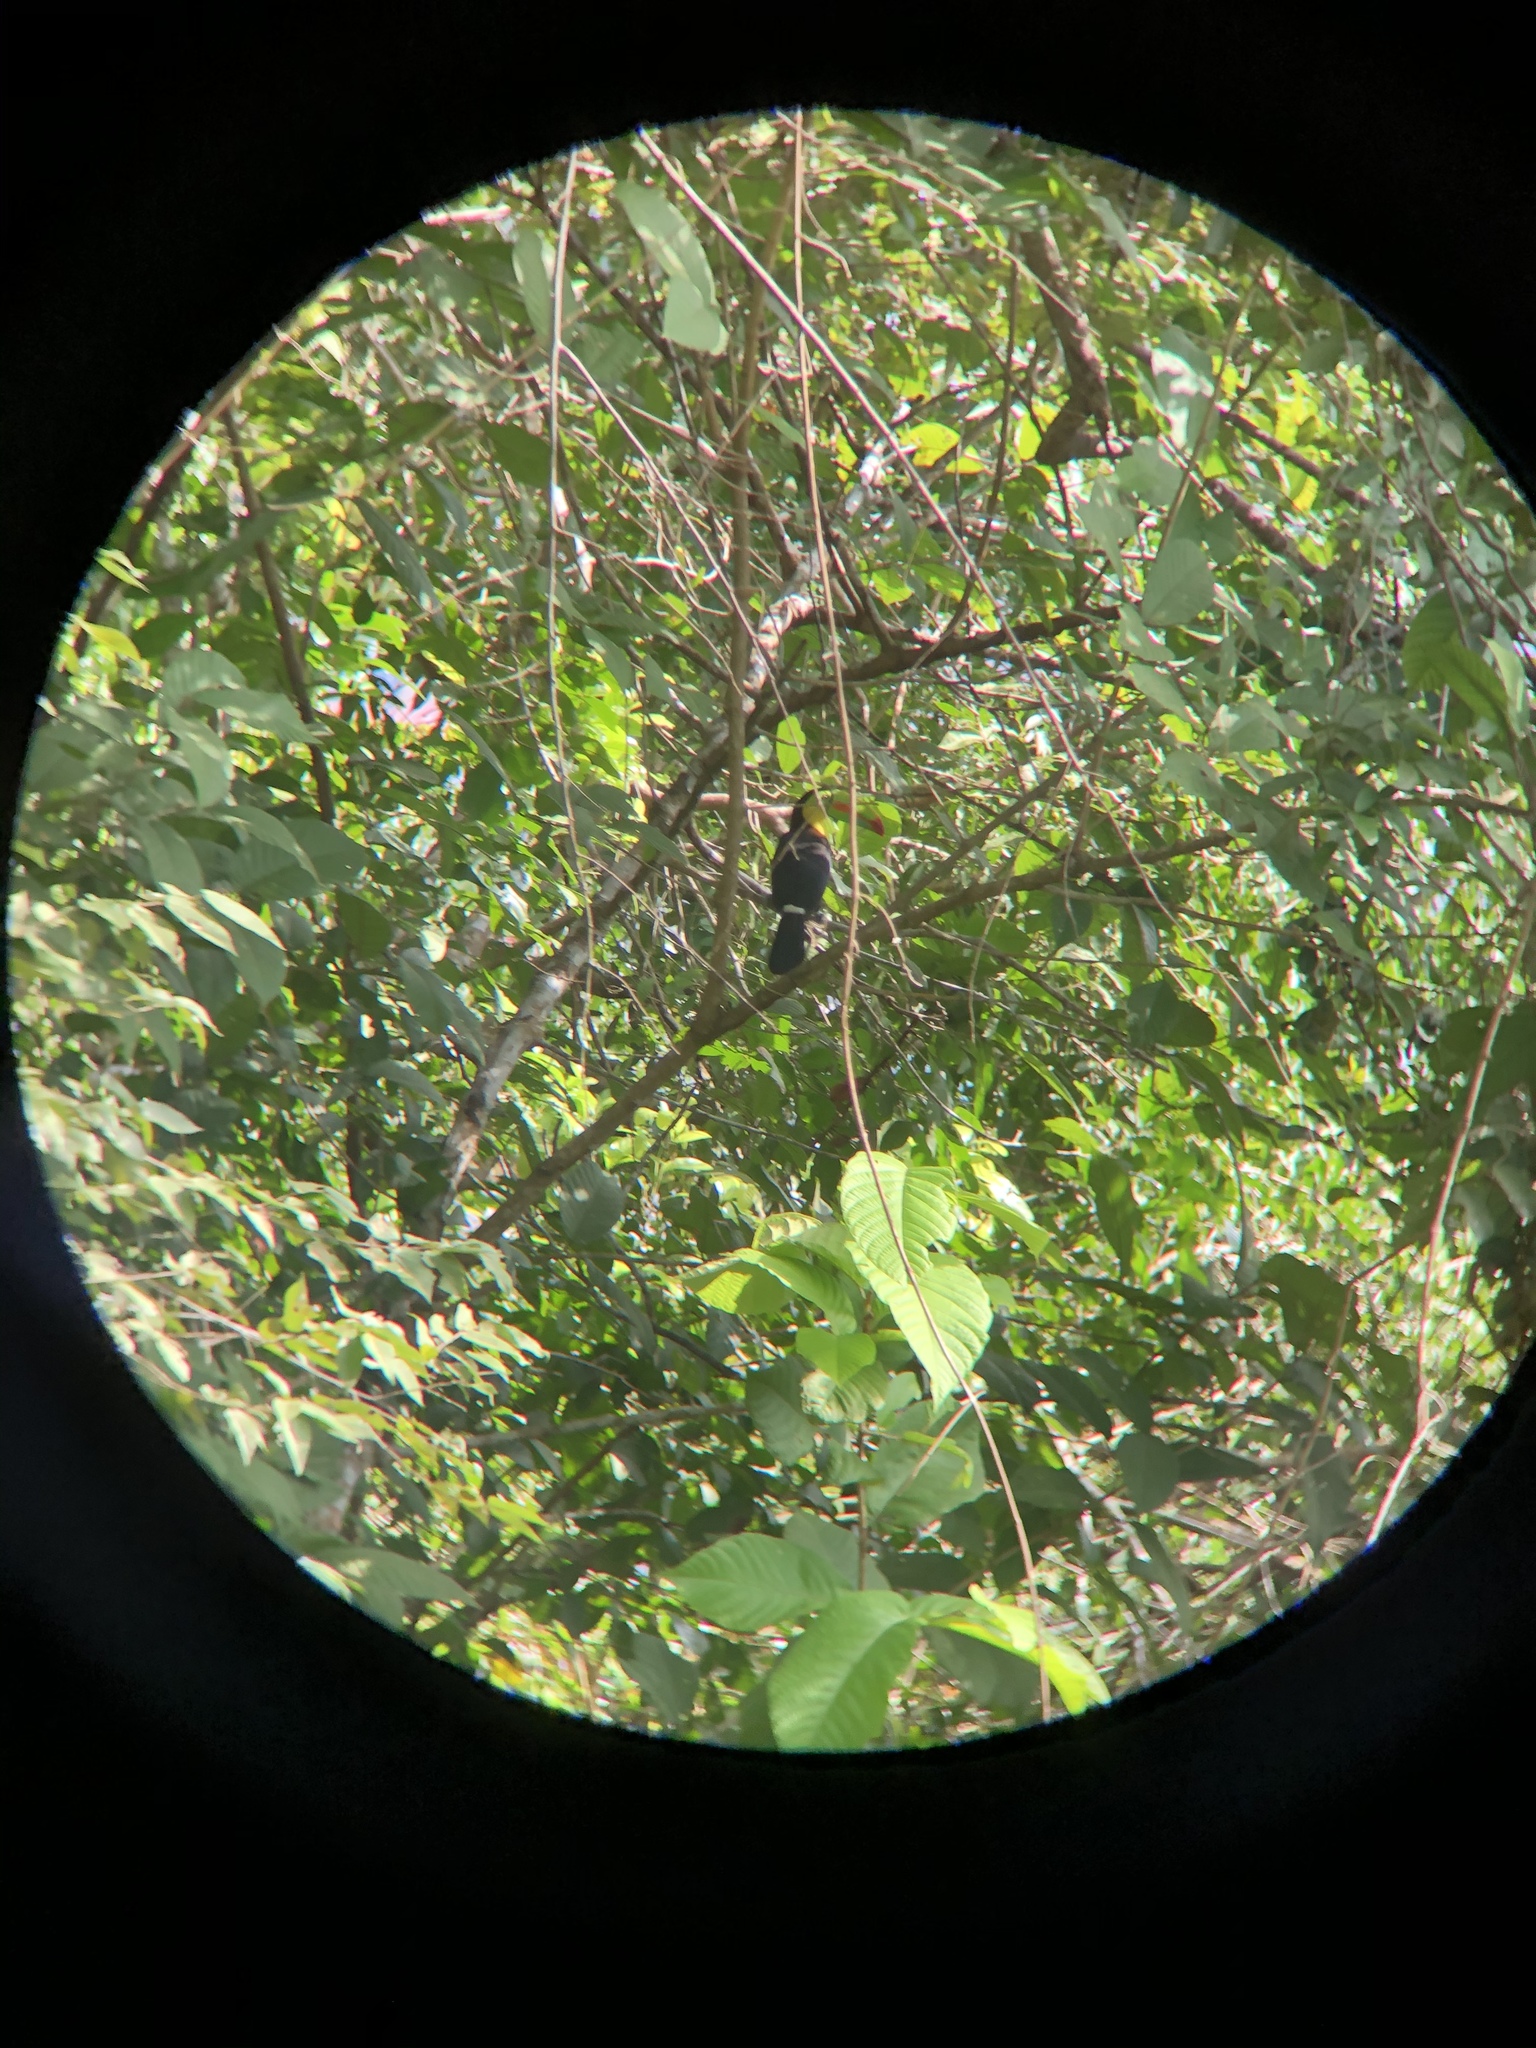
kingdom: Animalia
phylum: Chordata
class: Aves
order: Piciformes
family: Ramphastidae
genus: Ramphastos
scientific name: Ramphastos sulfuratus
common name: Keel-billed toucan
